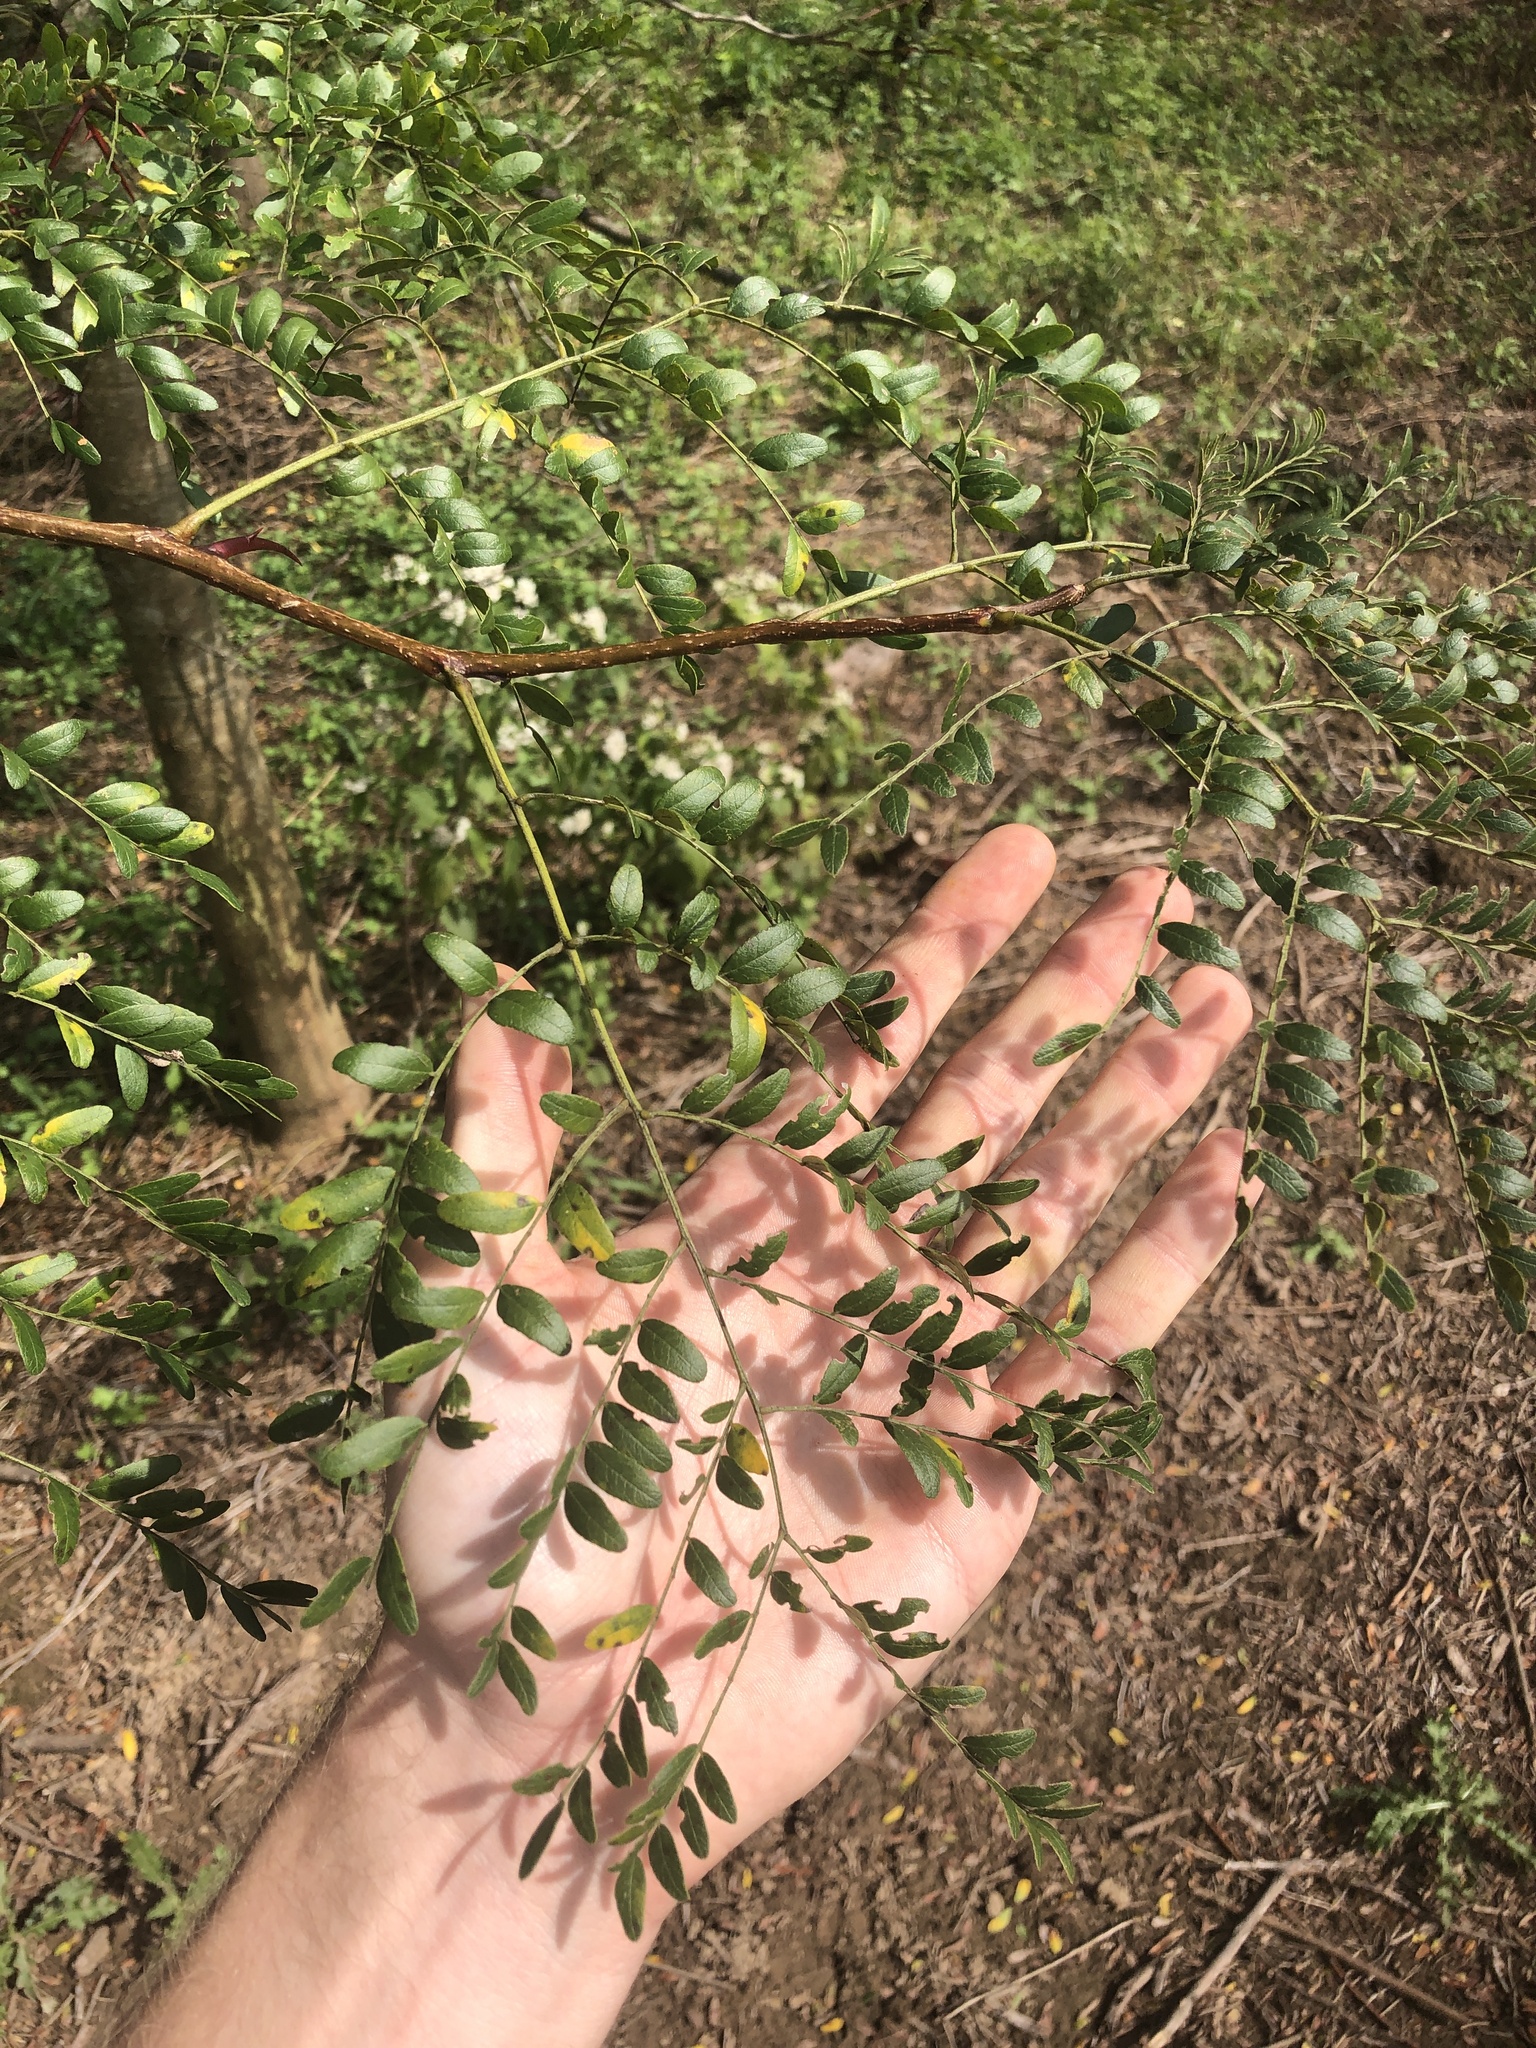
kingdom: Plantae
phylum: Tracheophyta
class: Magnoliopsida
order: Fabales
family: Fabaceae
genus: Gleditsia
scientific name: Gleditsia triacanthos
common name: Common honeylocust
